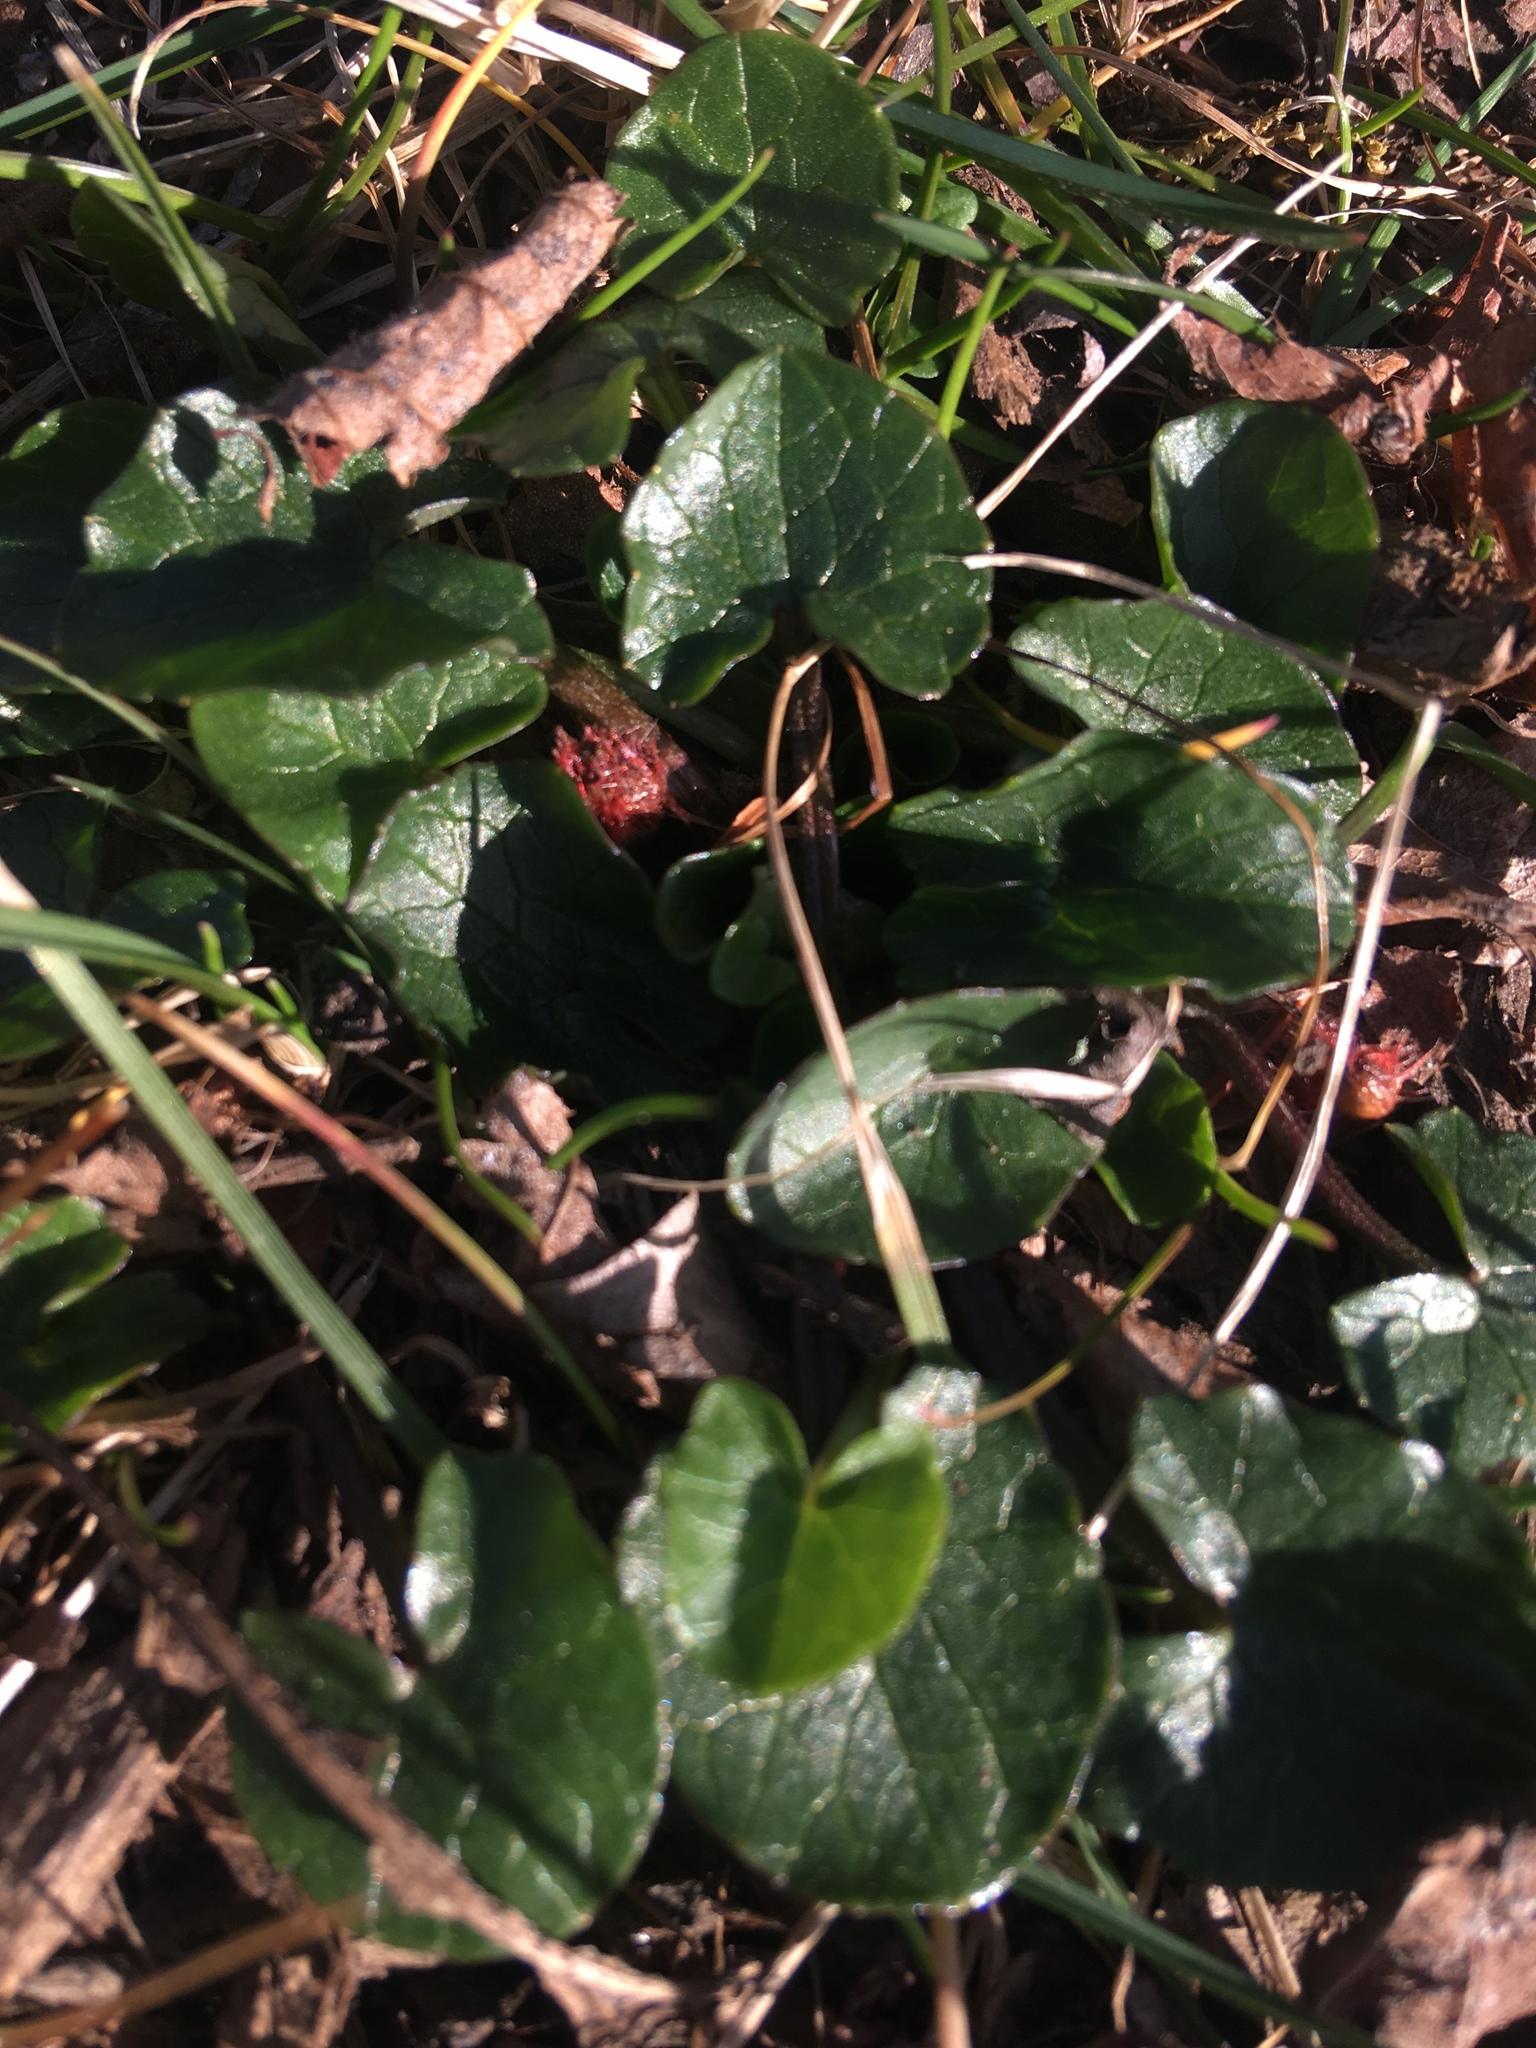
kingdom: Plantae
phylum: Tracheophyta
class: Magnoliopsida
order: Ranunculales
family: Ranunculaceae
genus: Ficaria
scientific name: Ficaria verna
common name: Lesser celandine
